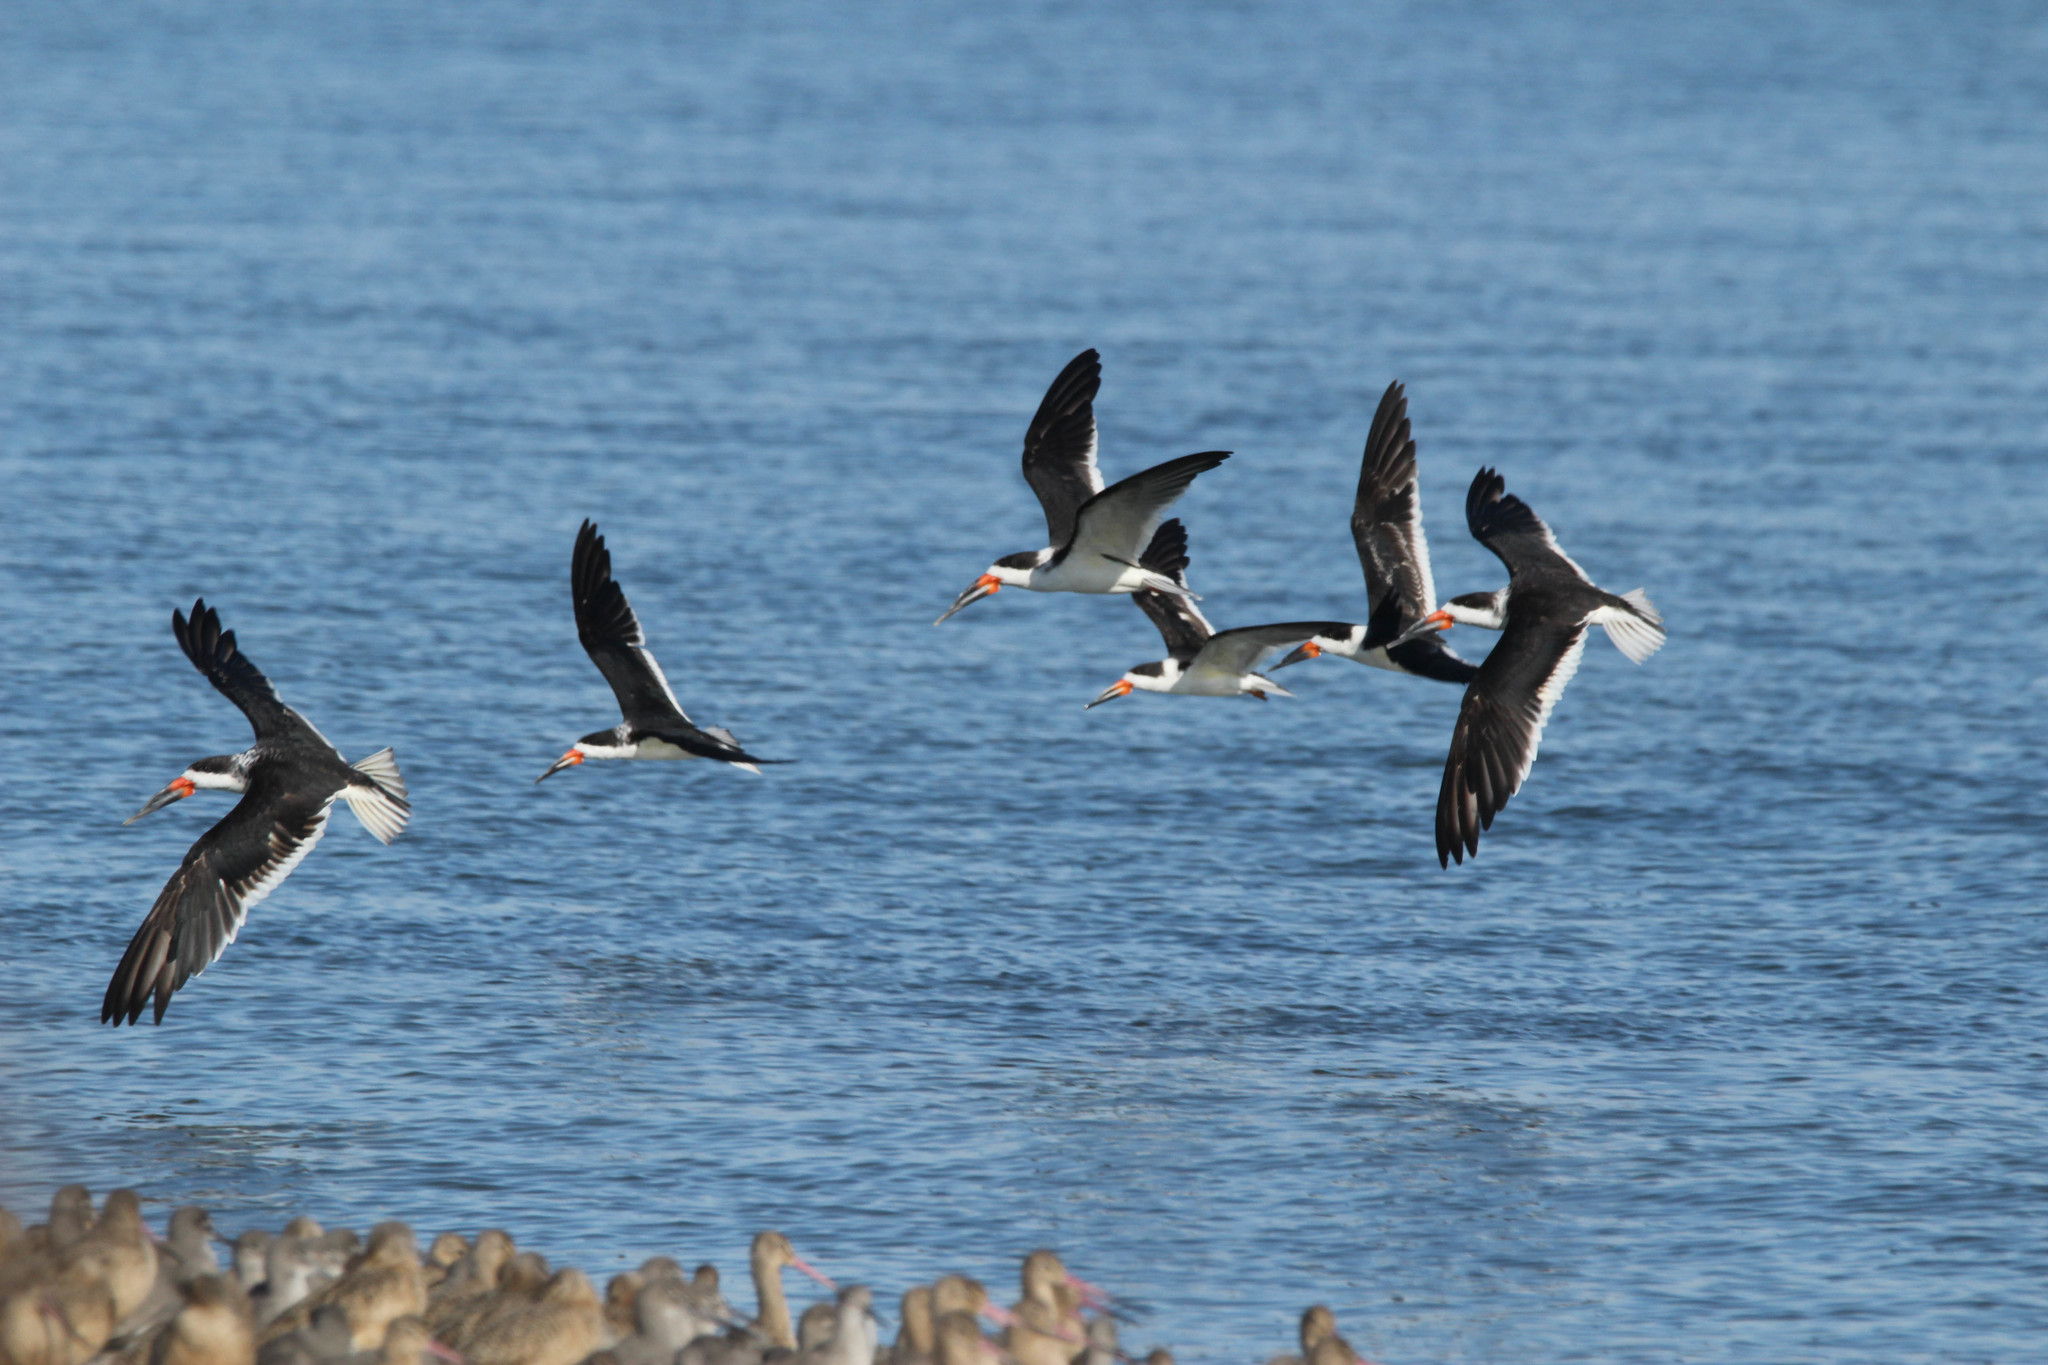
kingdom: Animalia
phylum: Chordata
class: Aves
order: Charadriiformes
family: Laridae
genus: Rynchops
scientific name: Rynchops niger
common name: Black skimmer
